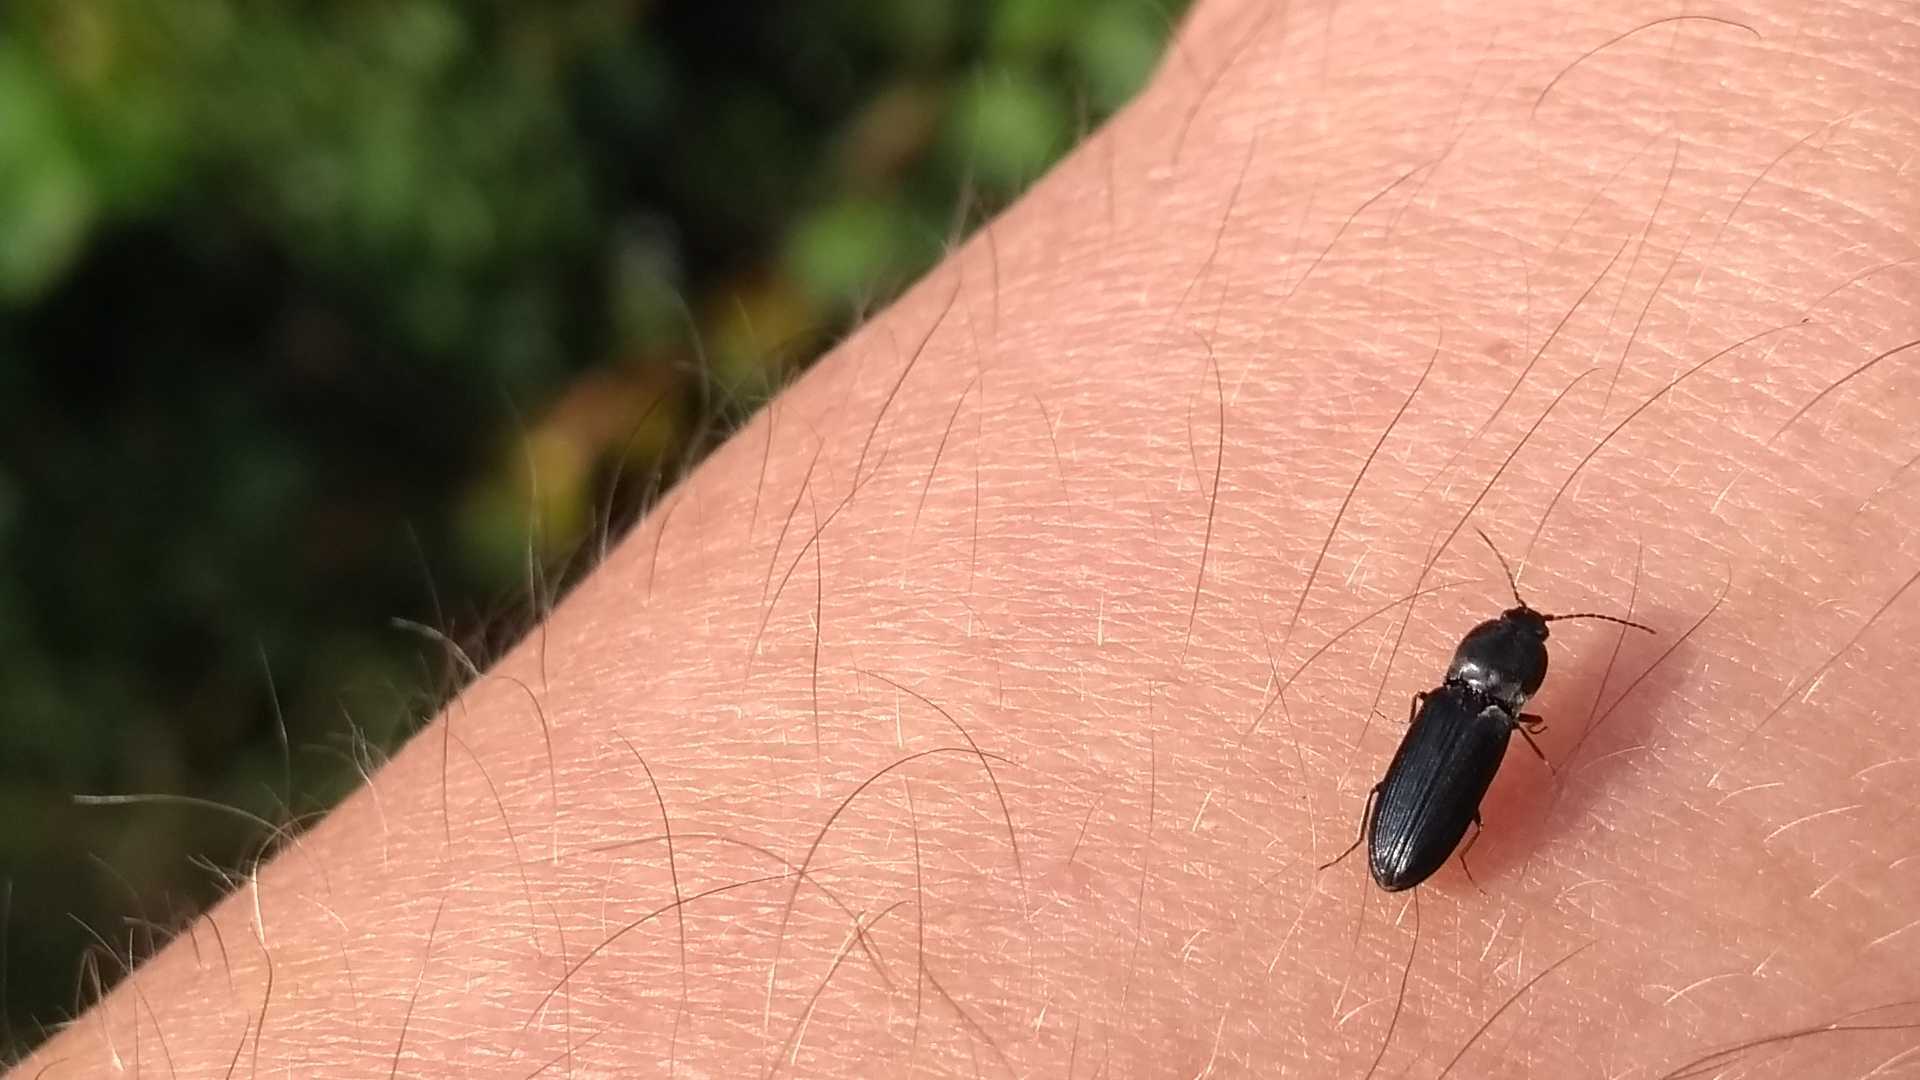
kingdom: Animalia
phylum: Arthropoda
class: Insecta
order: Coleoptera
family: Elateridae
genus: Cardiophorus
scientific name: Cardiophorus vestigialis
